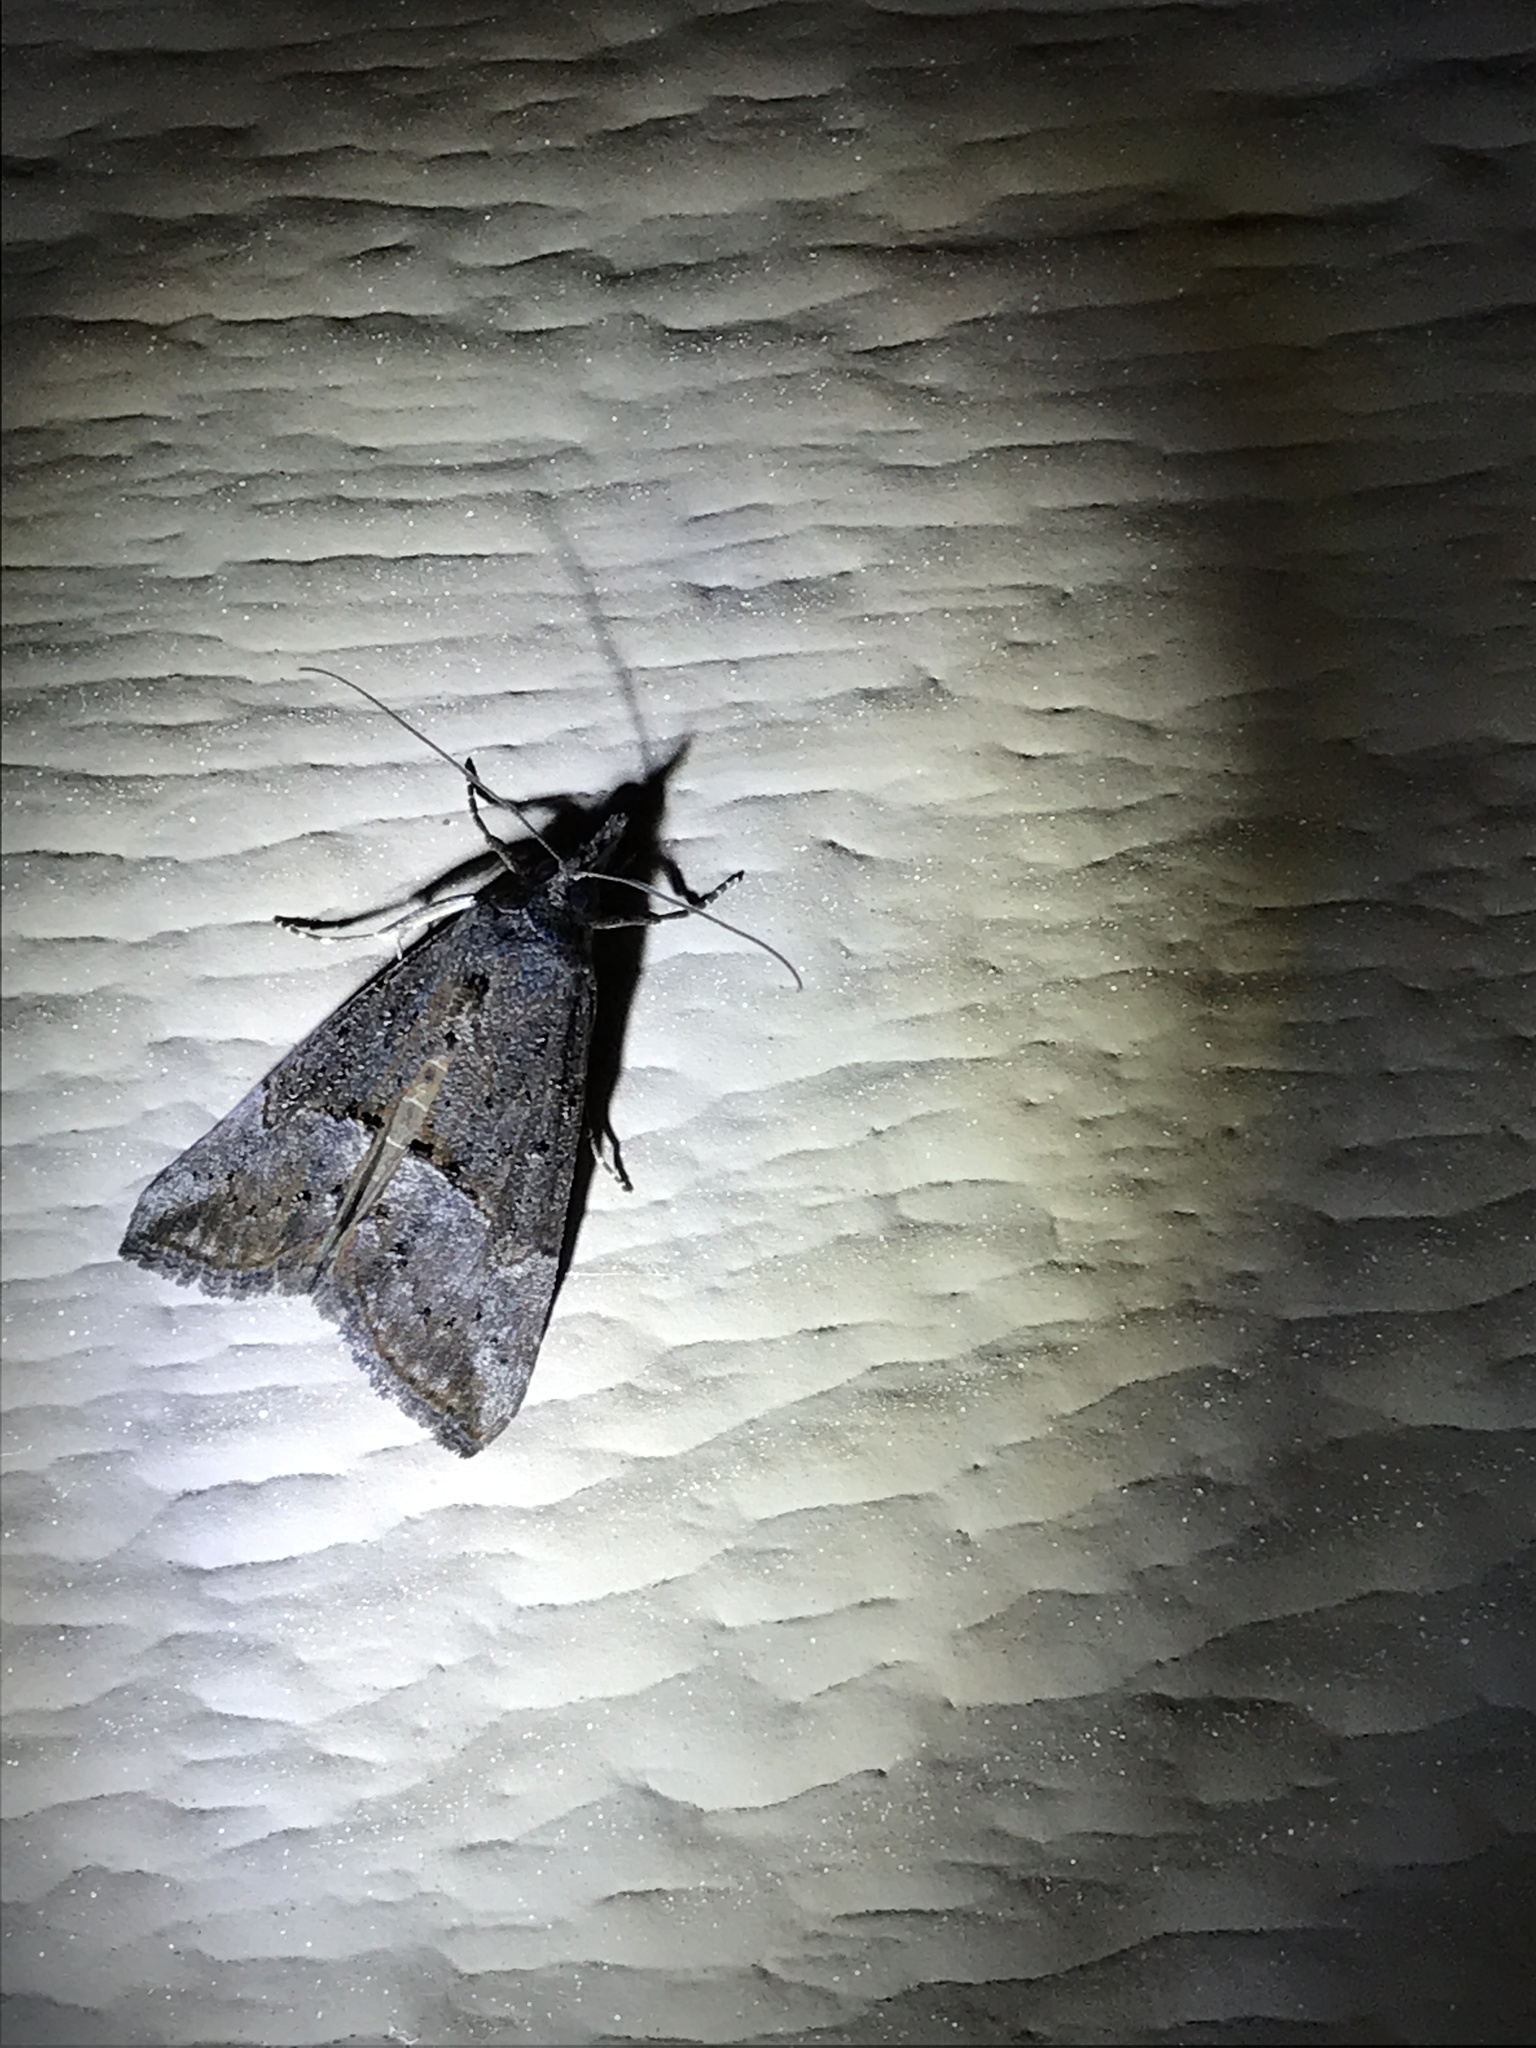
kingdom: Animalia
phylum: Arthropoda
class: Insecta
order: Lepidoptera
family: Erebidae
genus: Hypena
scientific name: Hypena scabra
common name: Green cloverworm
